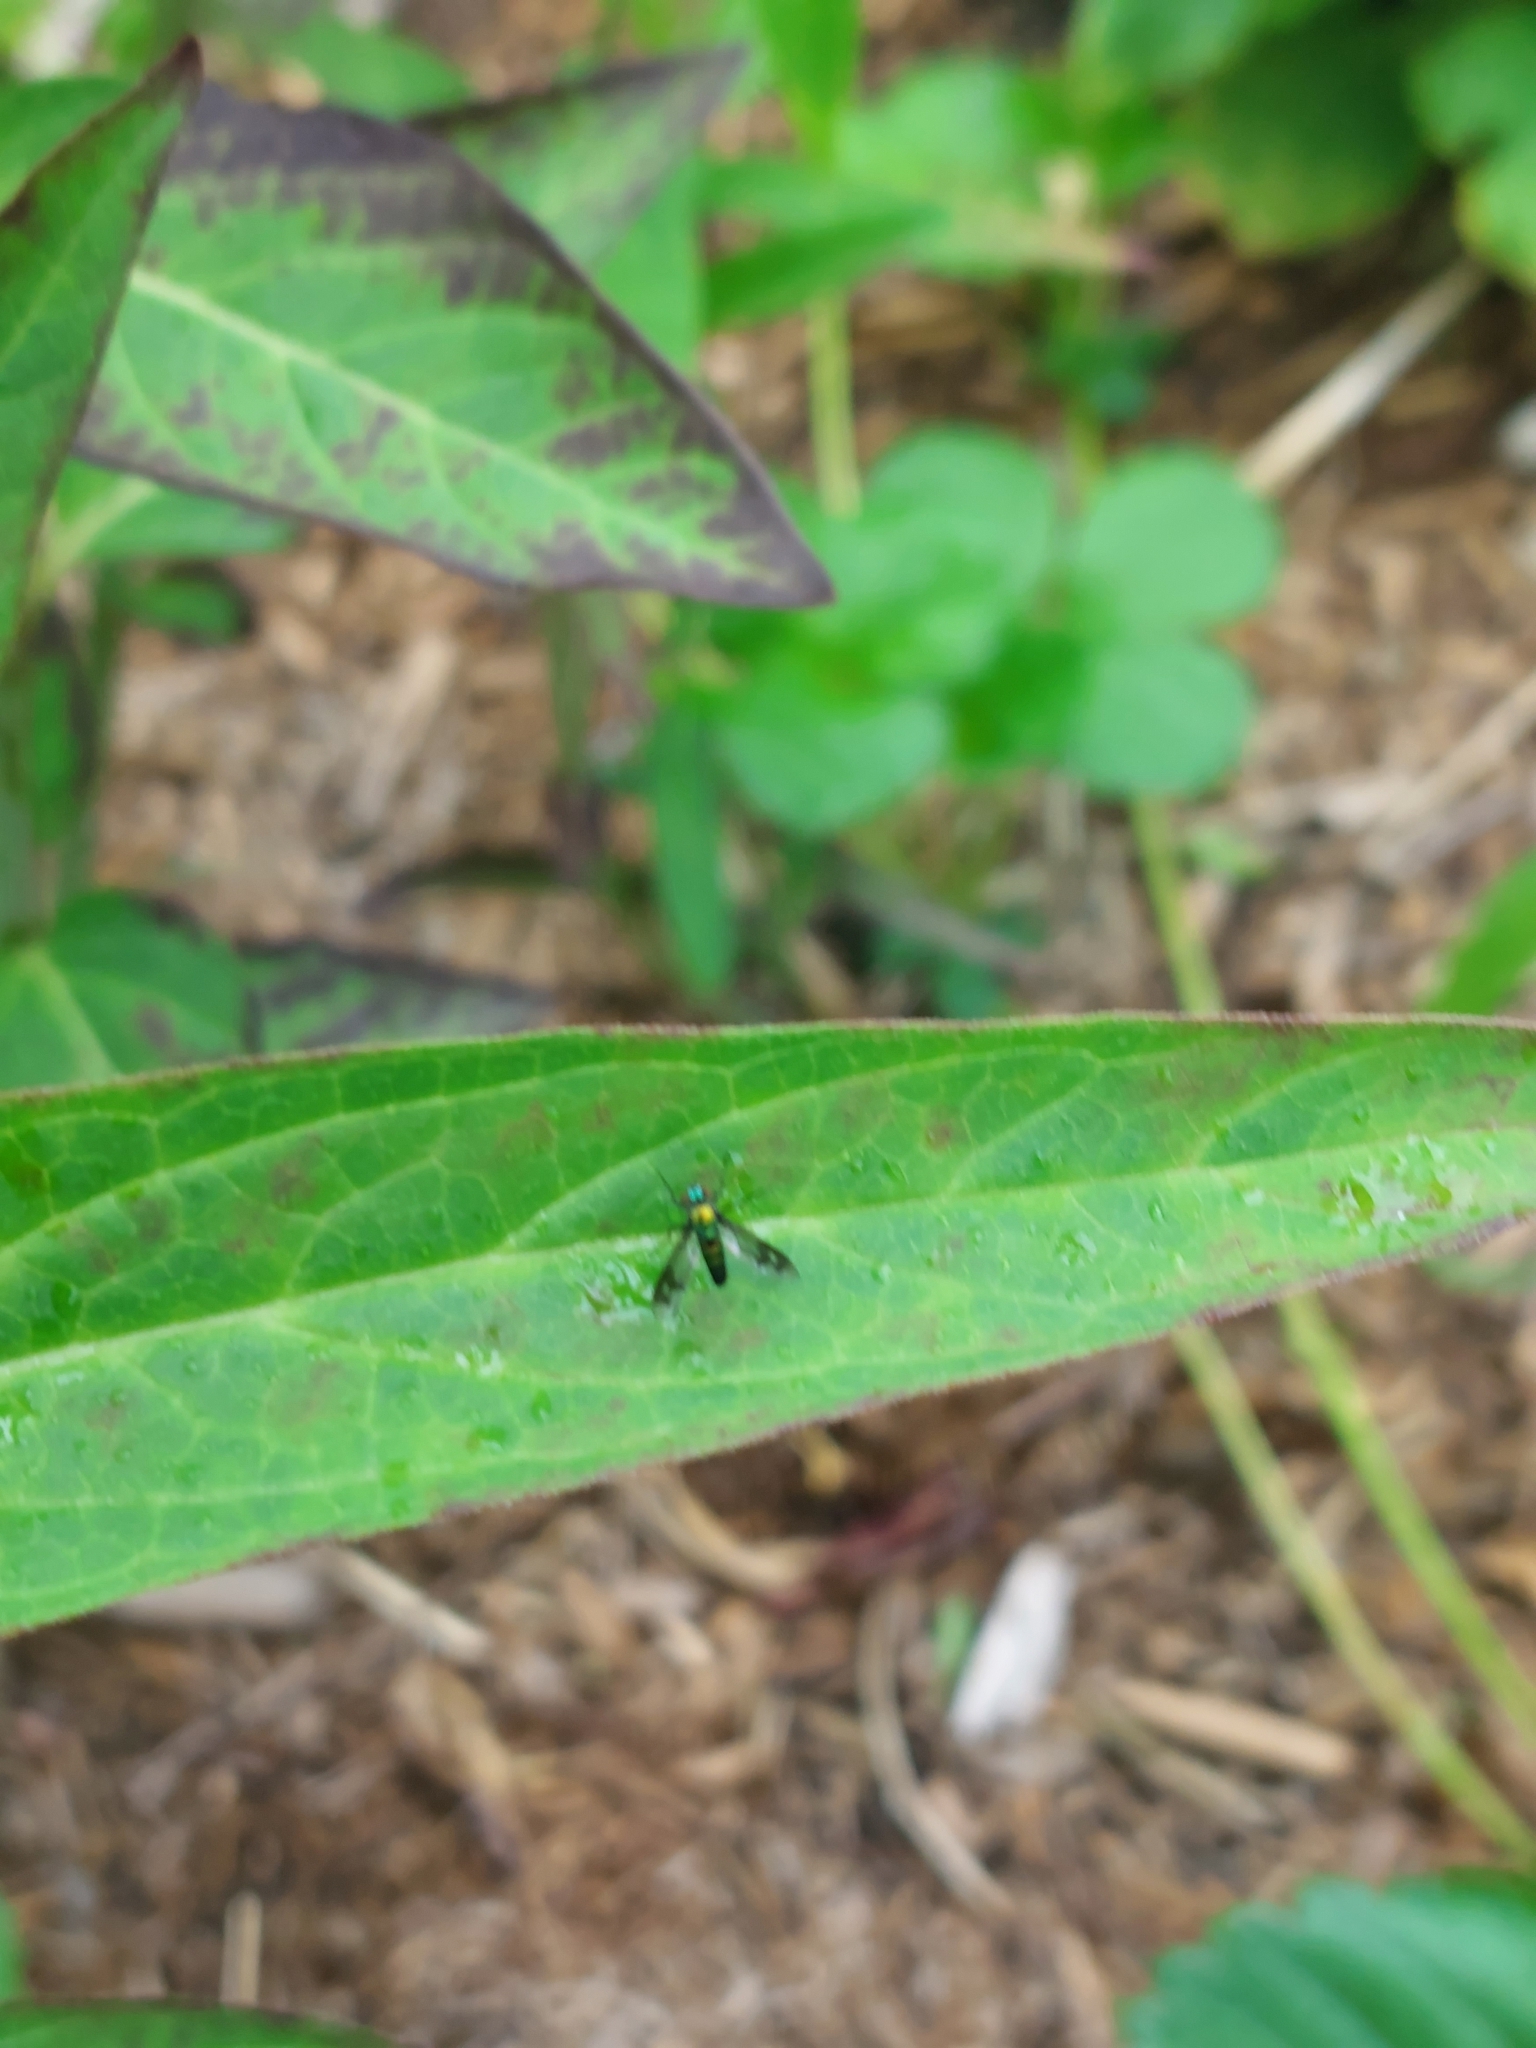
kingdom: Animalia
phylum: Arthropoda
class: Insecta
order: Diptera
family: Dolichopodidae
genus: Condylostylus
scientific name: Condylostylus patibulatus
